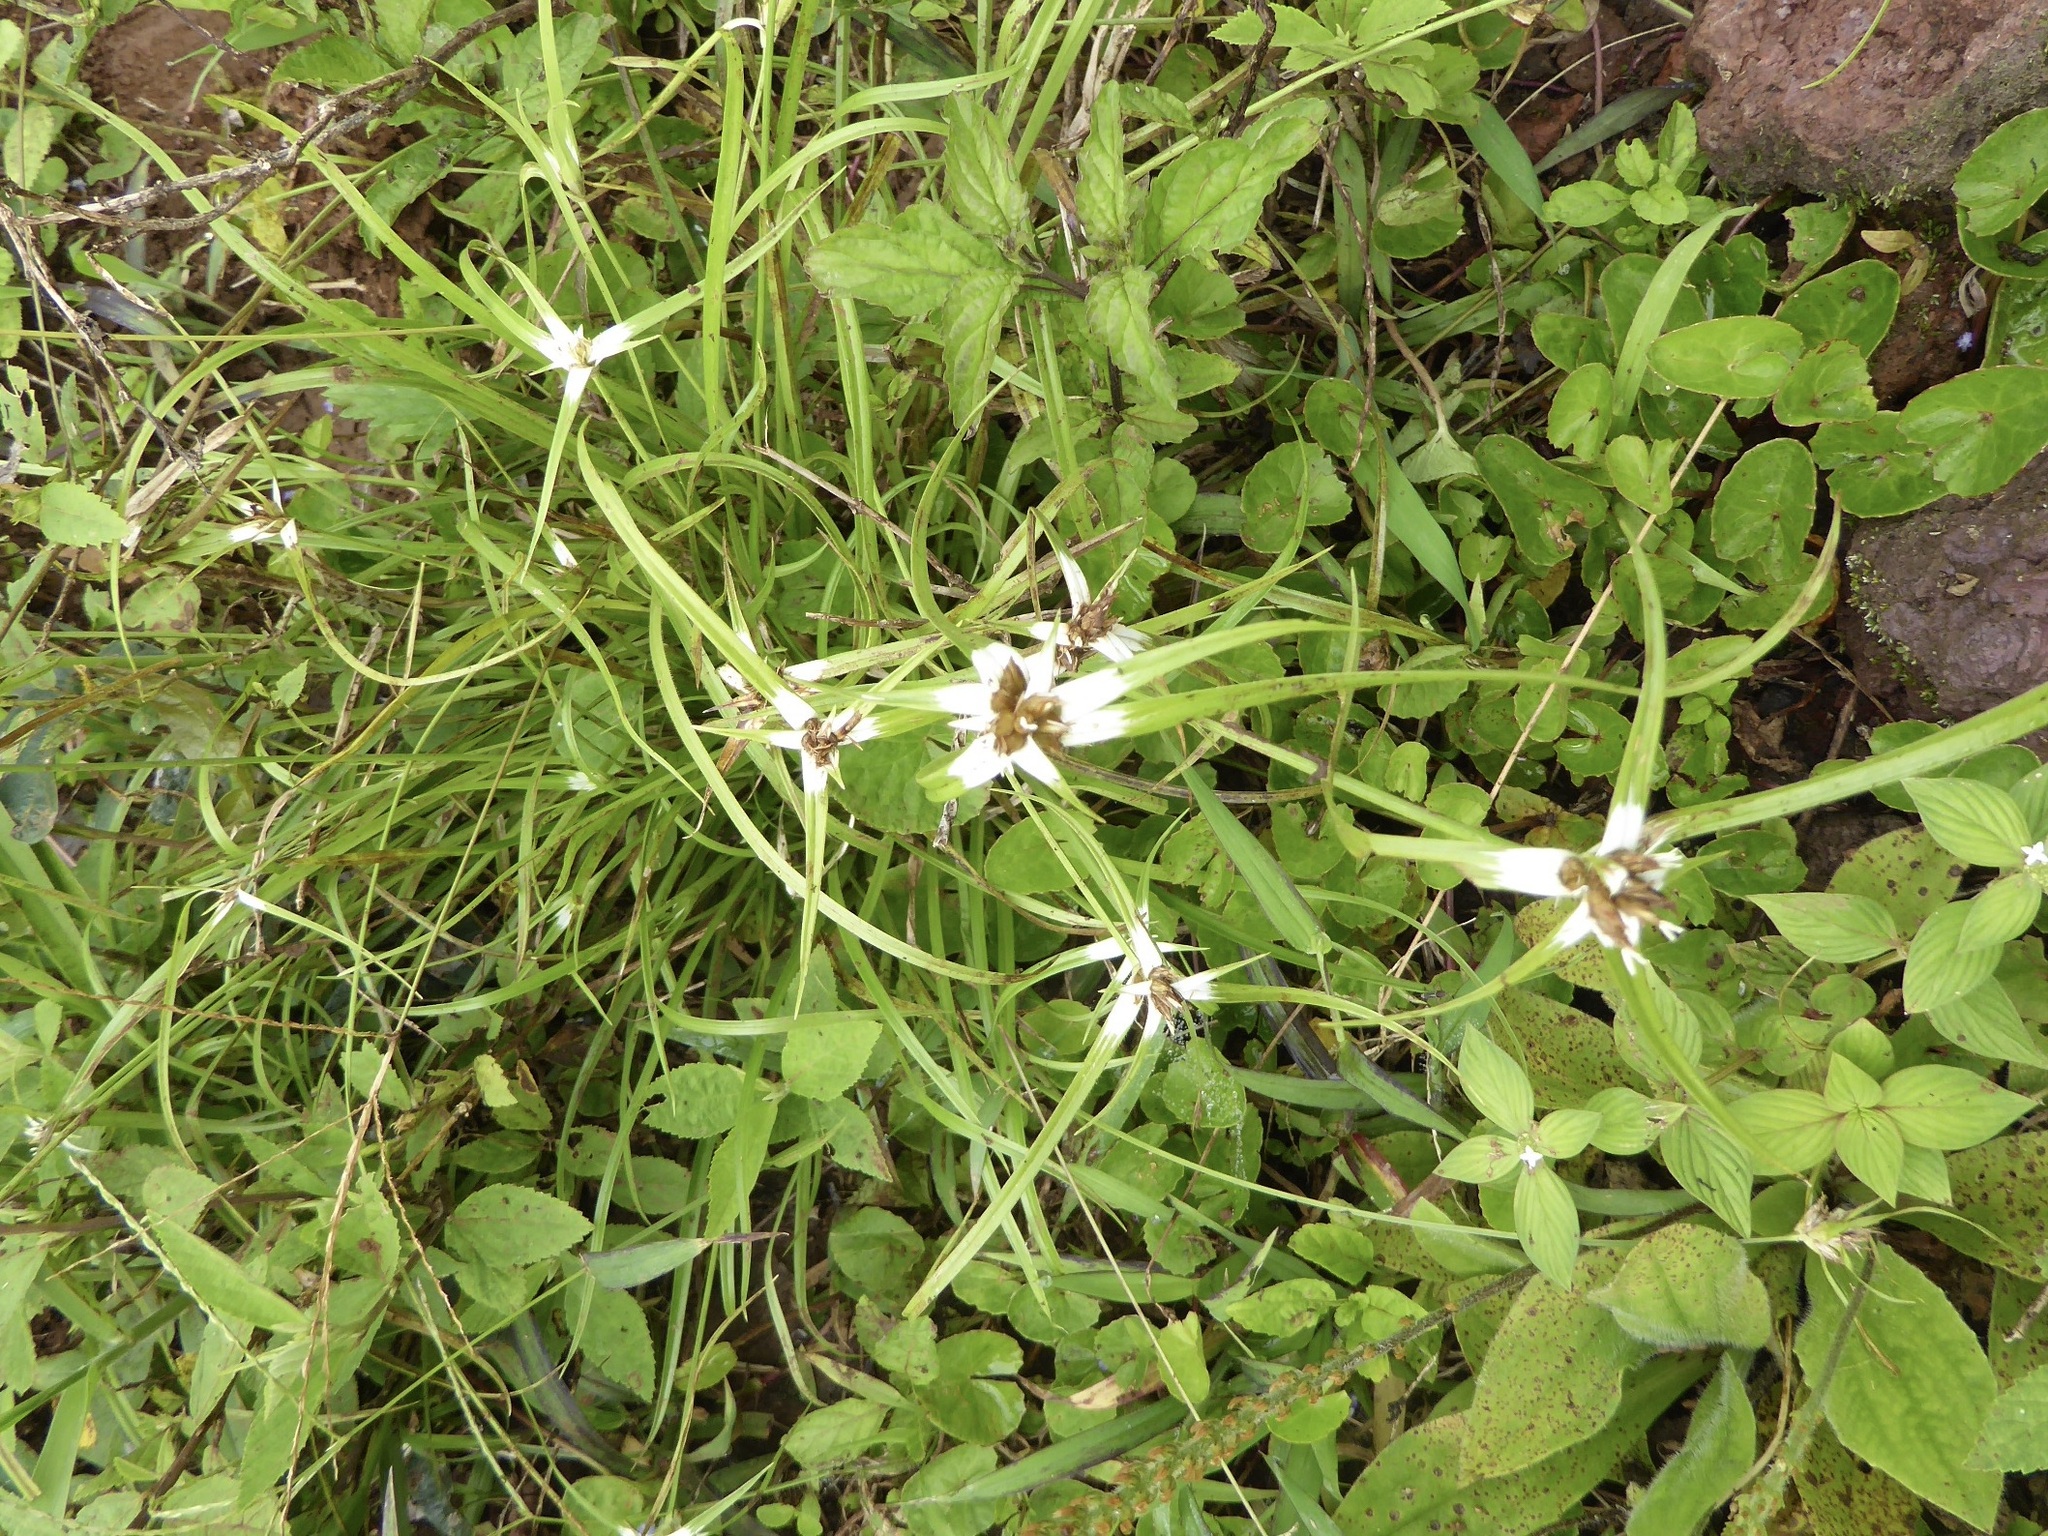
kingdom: Plantae
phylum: Tracheophyta
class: Liliopsida
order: Poales
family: Cyperaceae
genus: Rhynchospora
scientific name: Rhynchospora nervosa
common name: Star sedge
